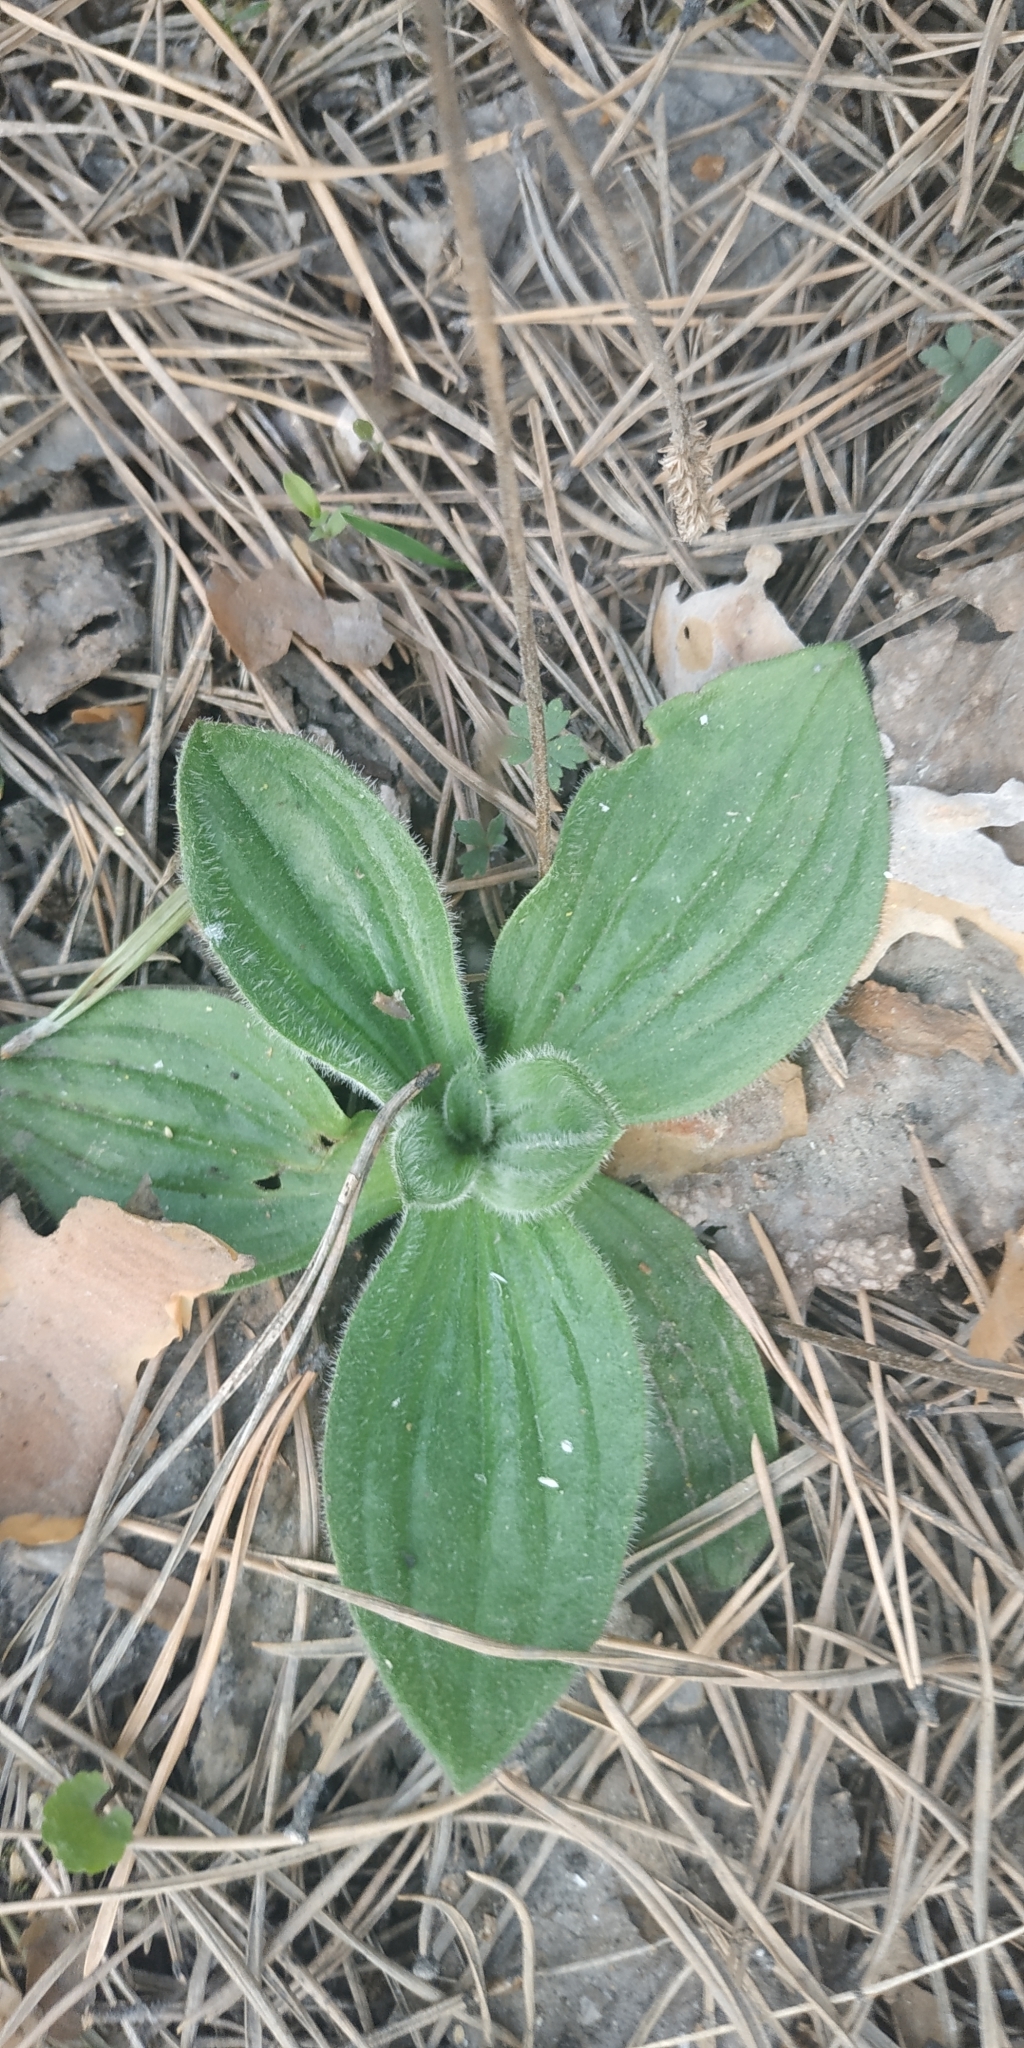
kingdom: Plantae
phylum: Tracheophyta
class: Magnoliopsida
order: Lamiales
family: Plantaginaceae
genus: Plantago
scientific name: Plantago media
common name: Hoary plantain
